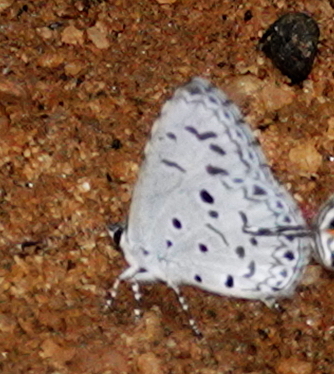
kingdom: Animalia
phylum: Arthropoda
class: Insecta
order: Lepidoptera
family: Lycaenidae
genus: Acytolepis
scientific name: Acytolepis puspa
